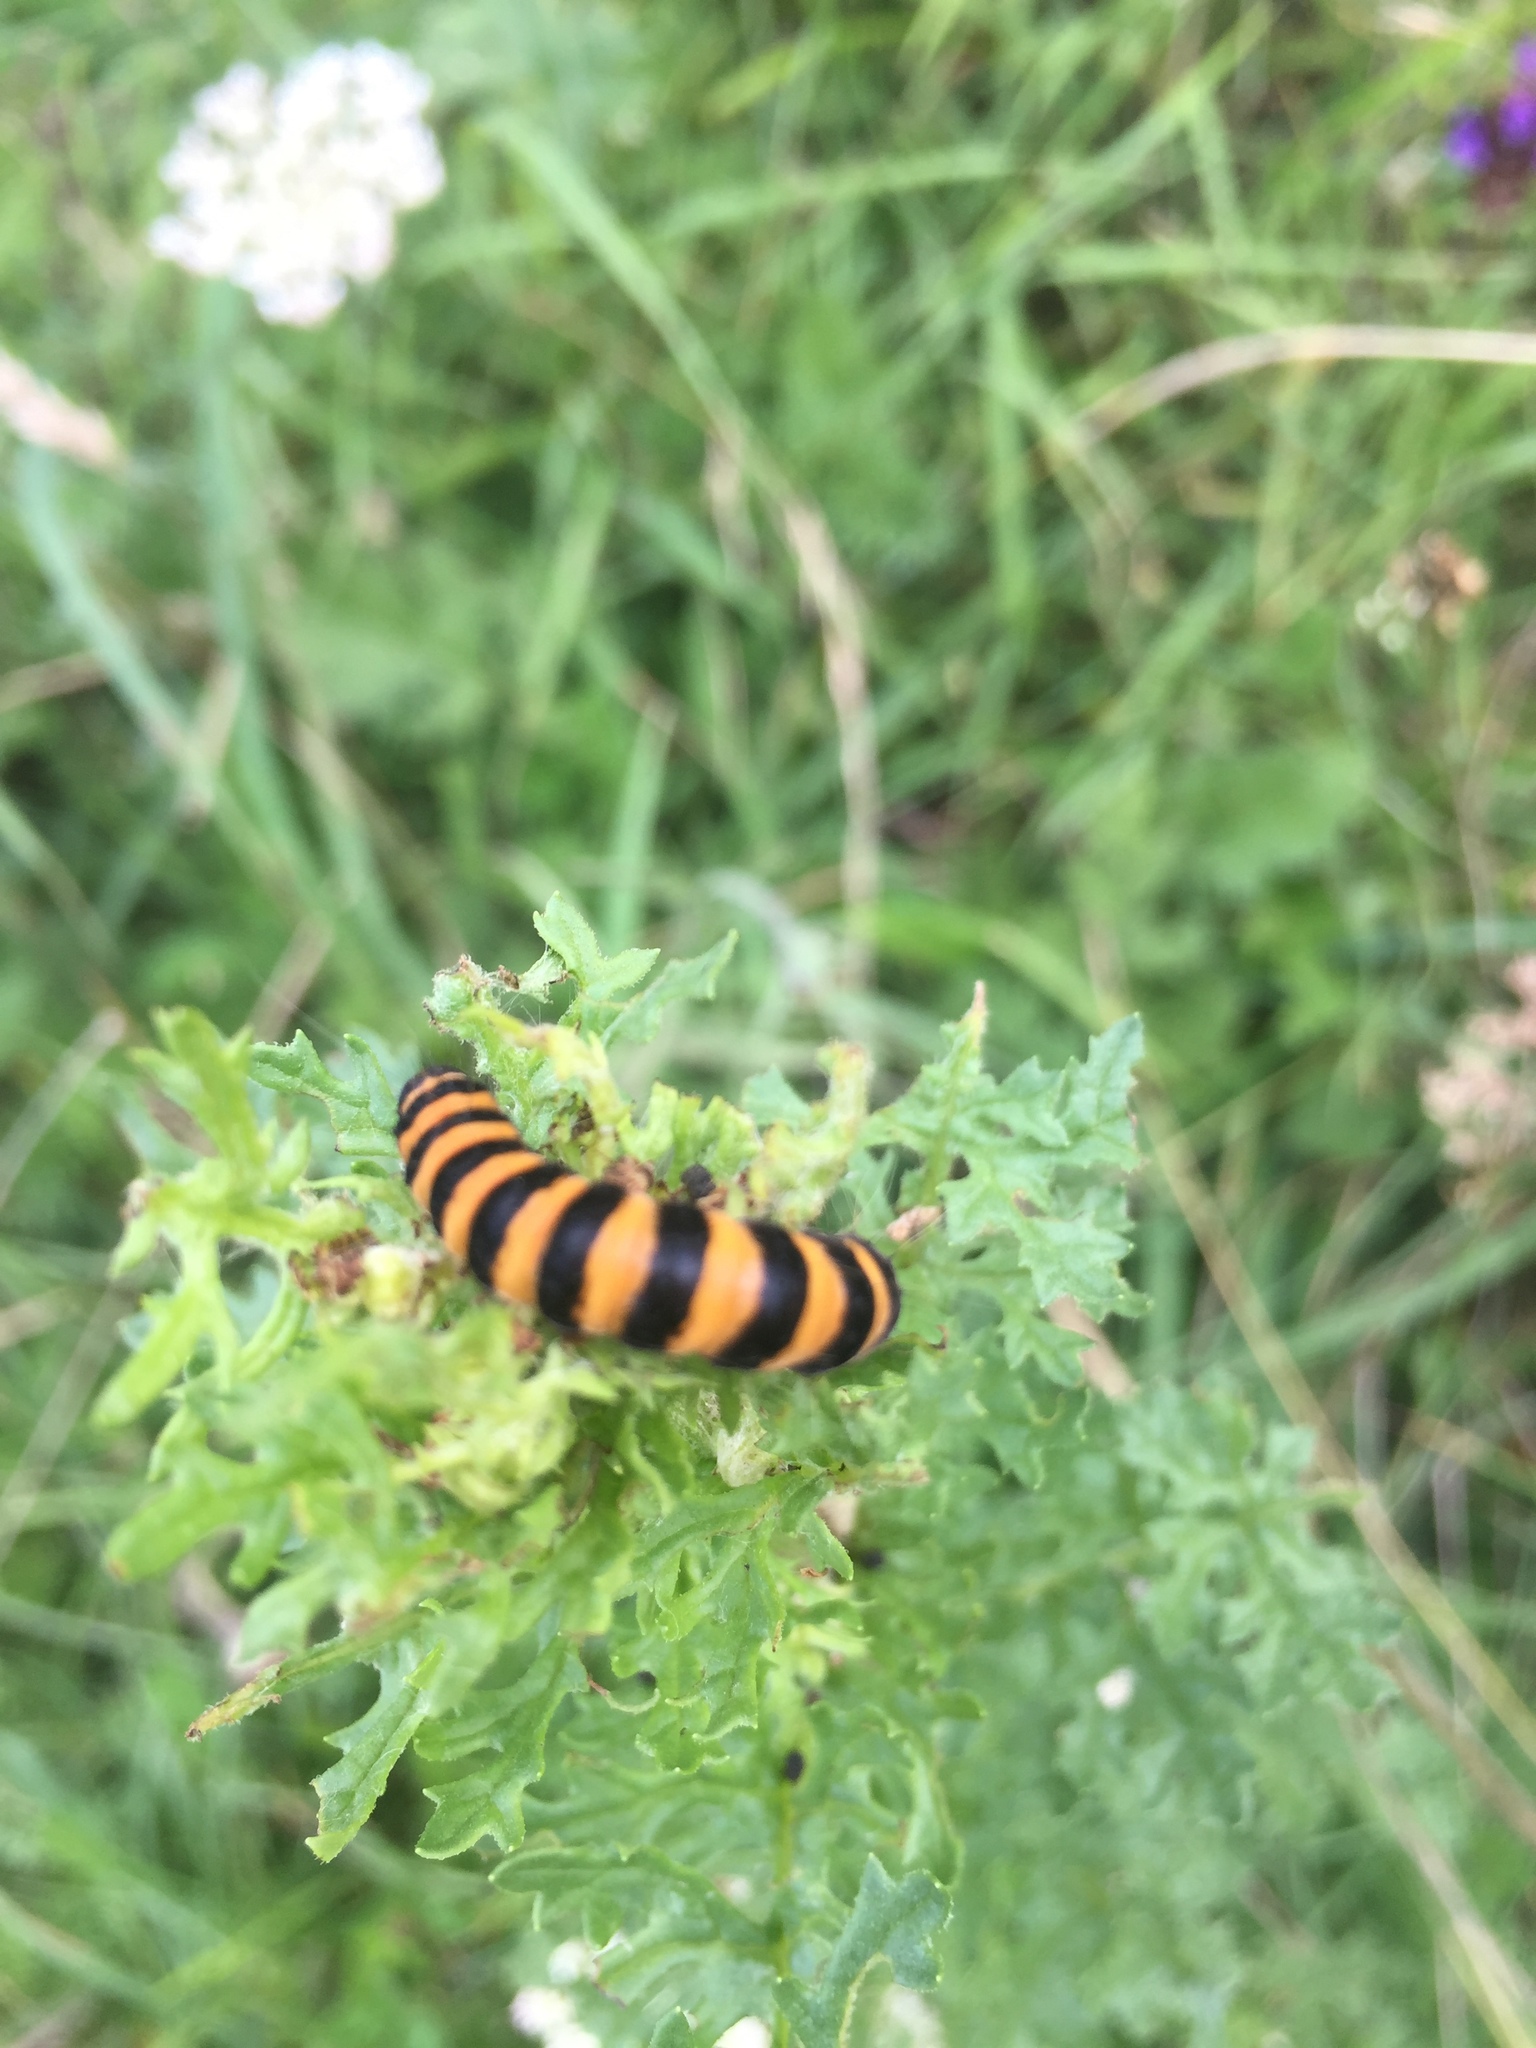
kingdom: Animalia
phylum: Arthropoda
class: Insecta
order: Lepidoptera
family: Erebidae
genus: Tyria
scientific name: Tyria jacobaeae
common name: Cinnabar
